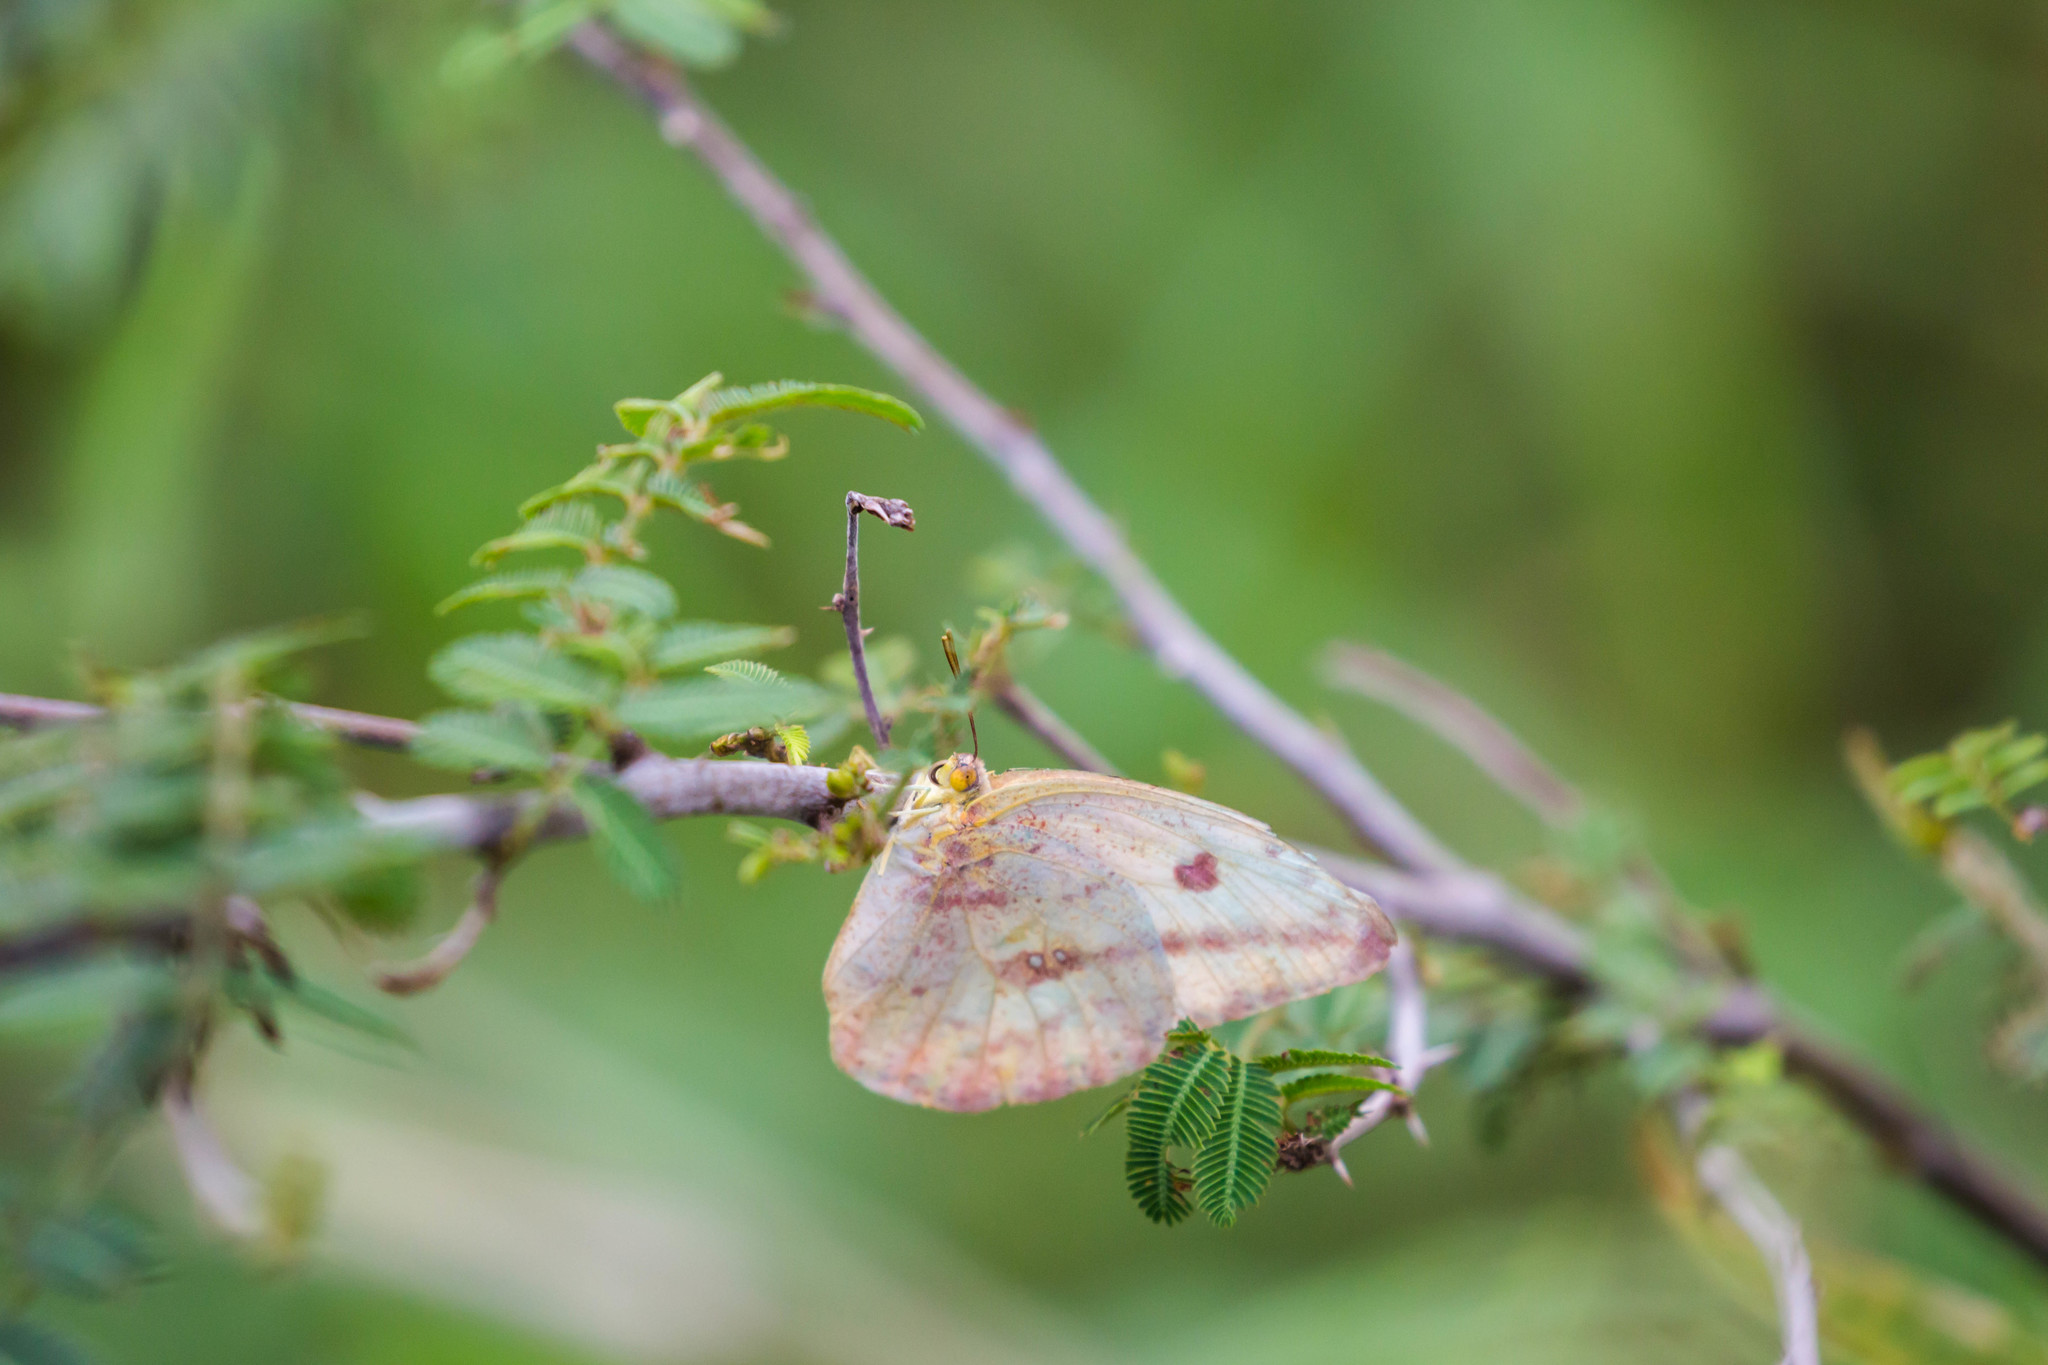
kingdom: Animalia
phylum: Arthropoda
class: Insecta
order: Lepidoptera
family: Pieridae
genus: Phoebis
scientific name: Phoebis agarithe
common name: Large orange sulphur
